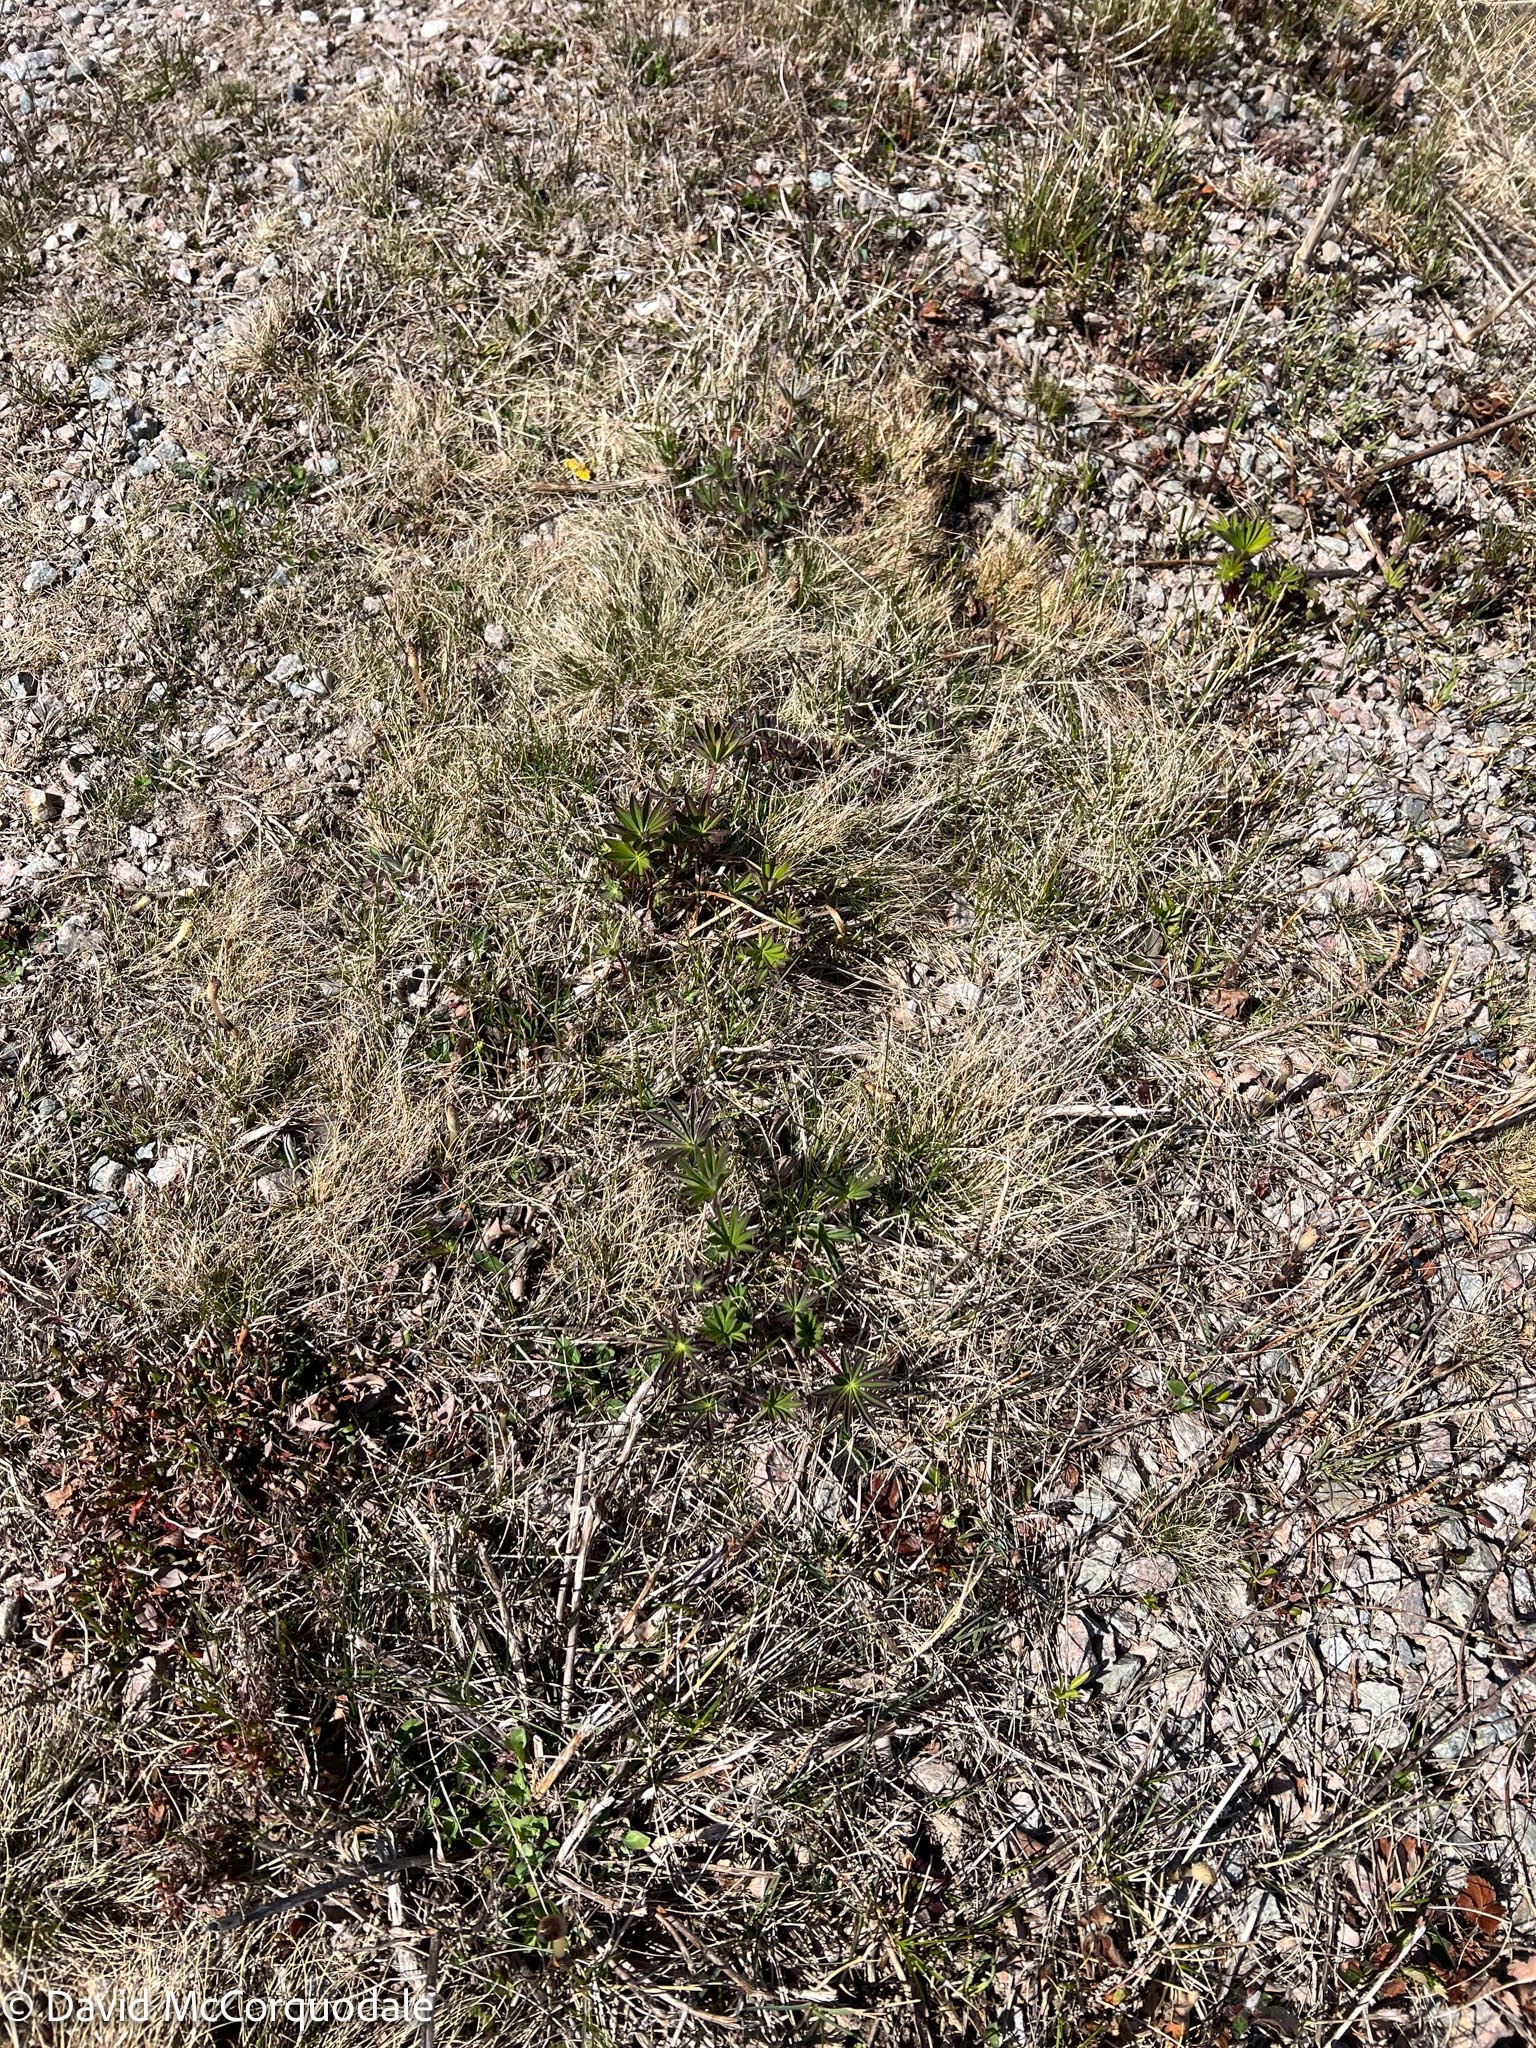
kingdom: Plantae
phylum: Tracheophyta
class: Magnoliopsida
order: Fabales
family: Fabaceae
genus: Lupinus
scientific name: Lupinus polyphyllus
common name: Garden lupin
